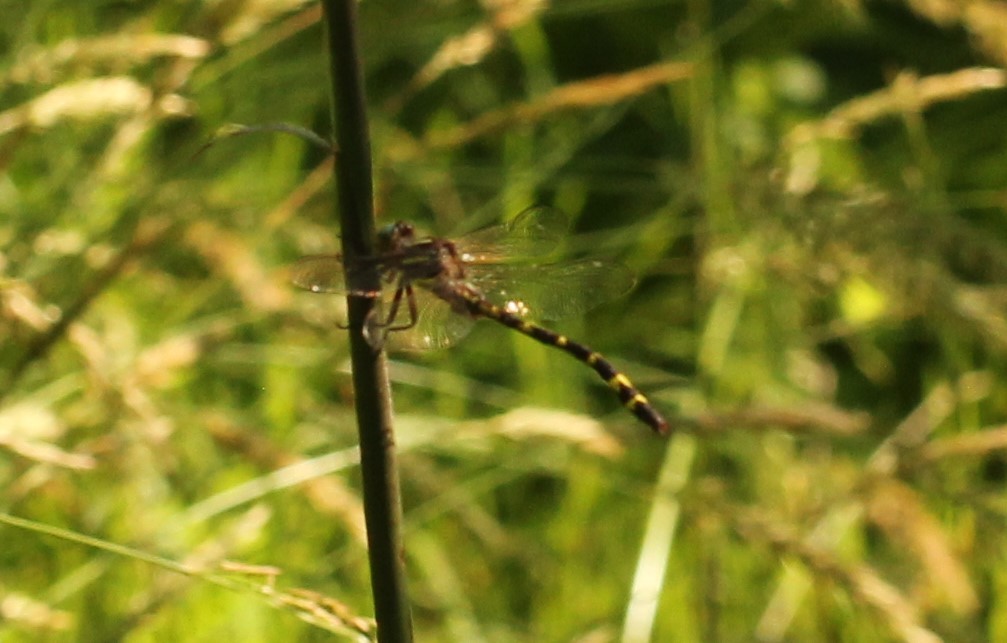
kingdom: Animalia
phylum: Arthropoda
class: Insecta
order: Odonata
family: Cordulegastridae
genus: Cordulegaster
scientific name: Cordulegaster bilineata
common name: Brown spiketail
